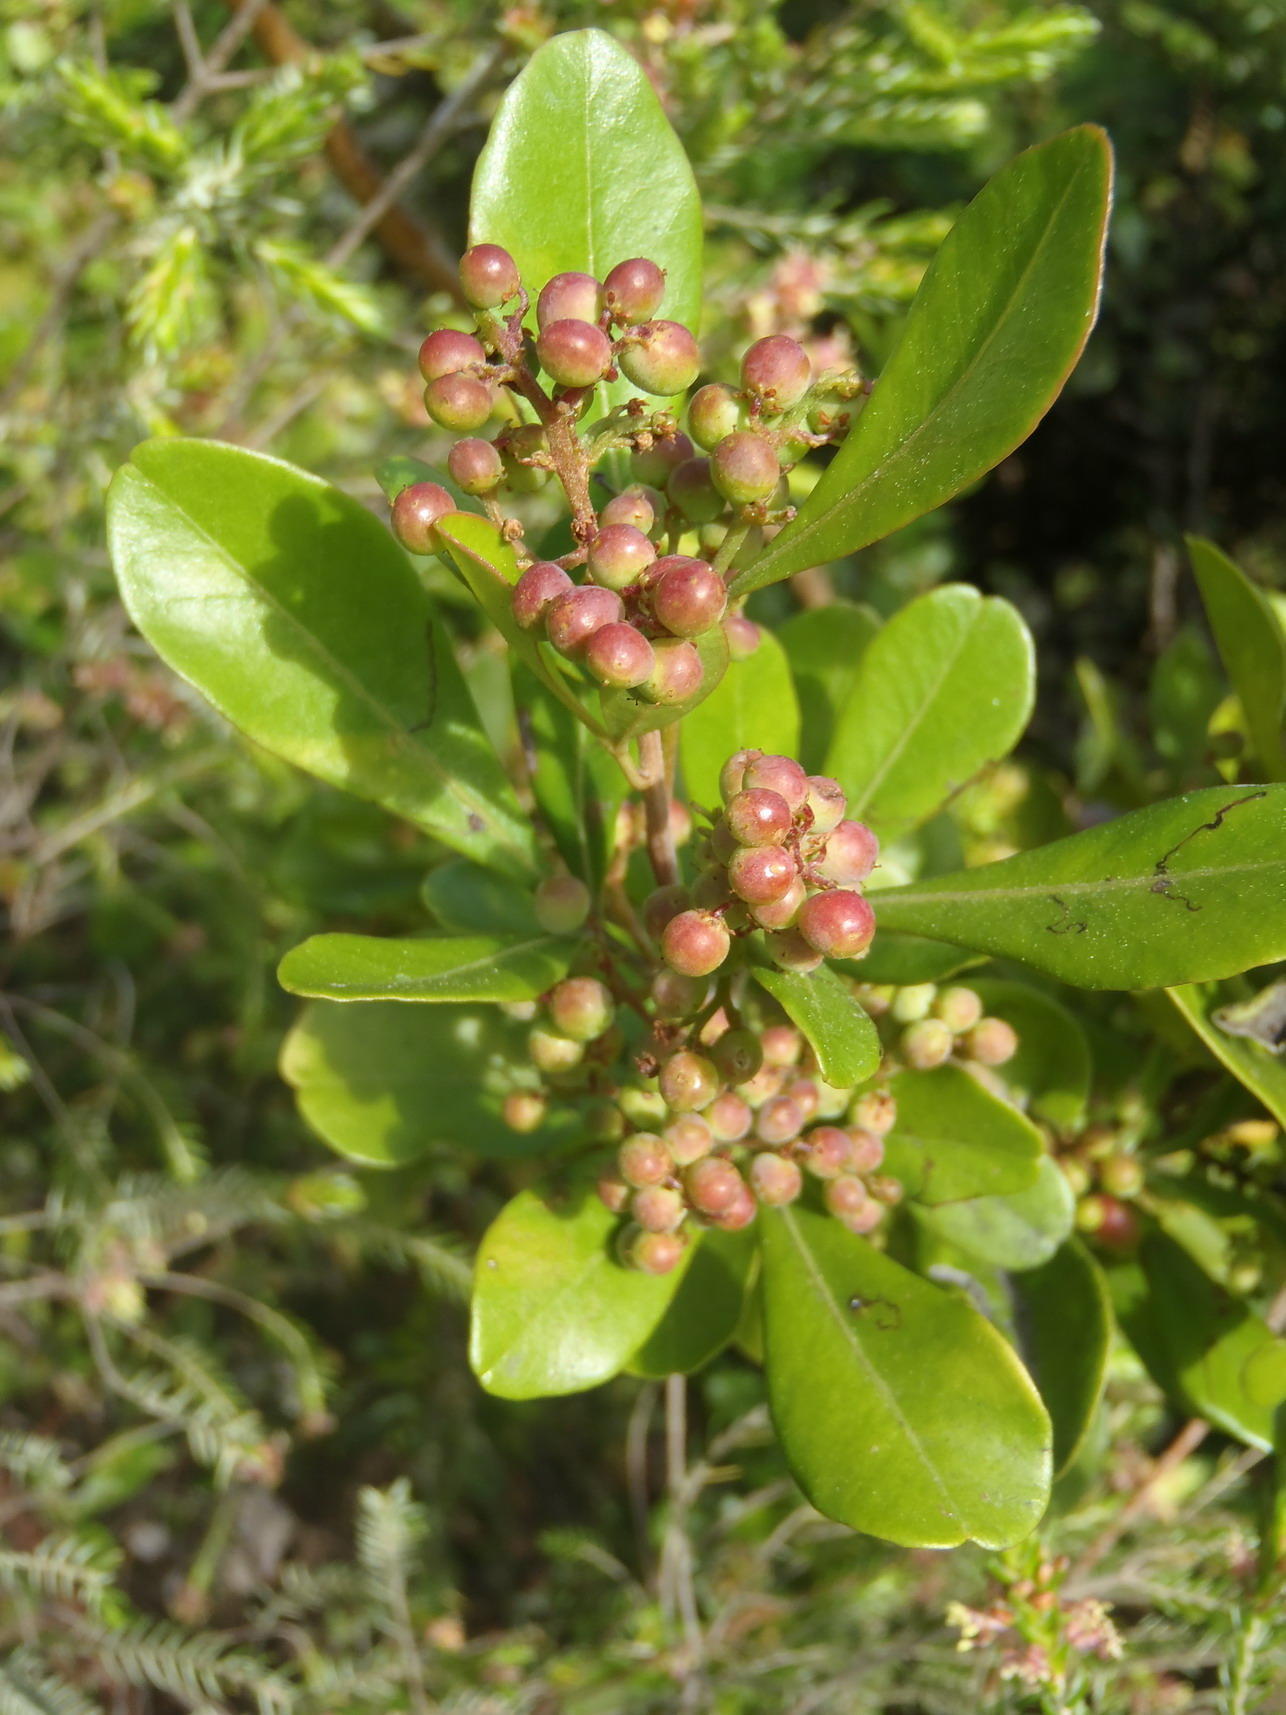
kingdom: Plantae
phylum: Tracheophyta
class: Magnoliopsida
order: Sapindales
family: Anacardiaceae
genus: Searsia
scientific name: Searsia lucida
